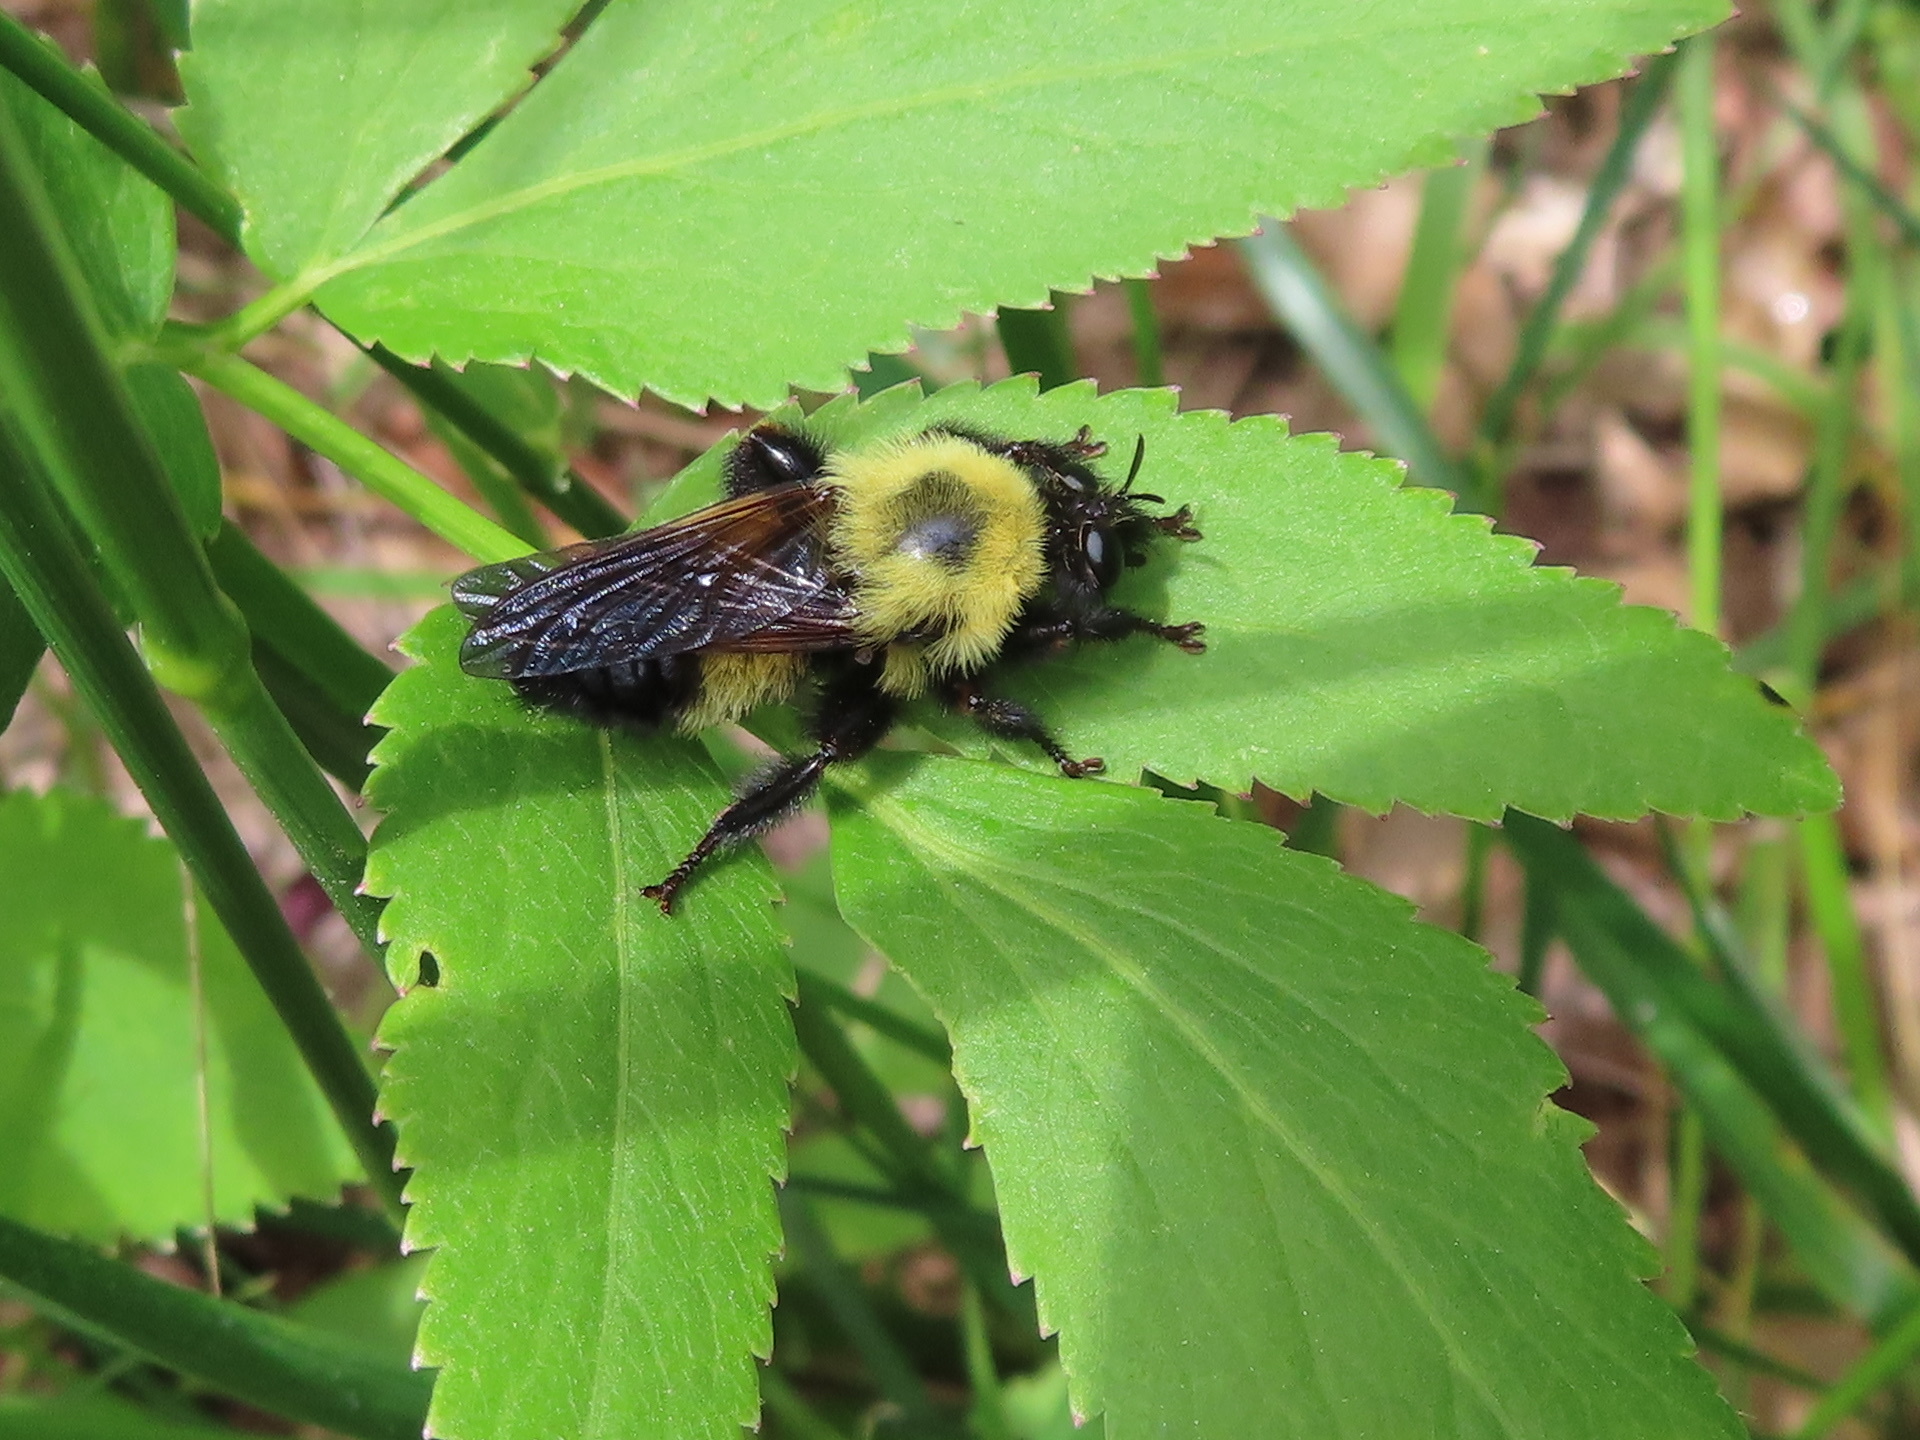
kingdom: Animalia
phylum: Arthropoda
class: Insecta
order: Diptera
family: Asilidae
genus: Laphria
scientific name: Laphria thoracica
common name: Bumble bee mimic robber fly
